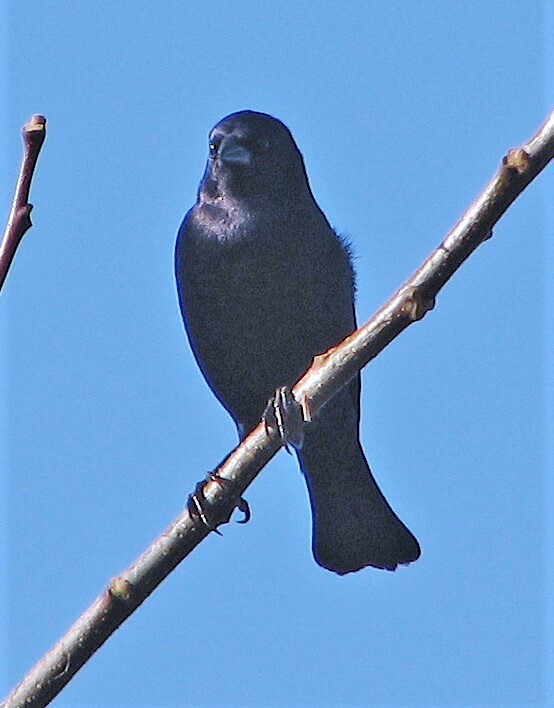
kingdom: Animalia
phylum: Chordata
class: Aves
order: Passeriformes
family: Icteridae
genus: Molothrus
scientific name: Molothrus bonariensis
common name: Shiny cowbird
